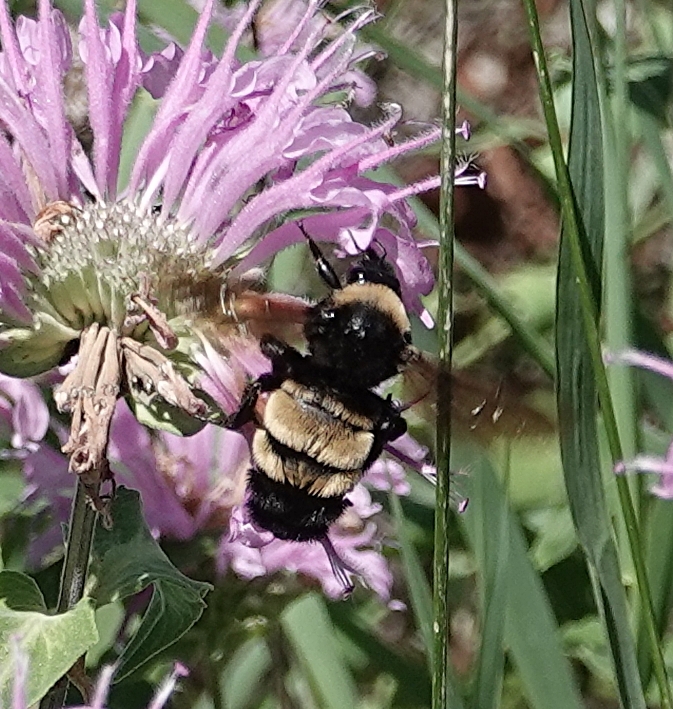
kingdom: Animalia
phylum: Arthropoda
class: Insecta
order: Hymenoptera
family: Apidae
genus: Bombus
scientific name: Bombus pensylvanicus
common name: Bumble bee
